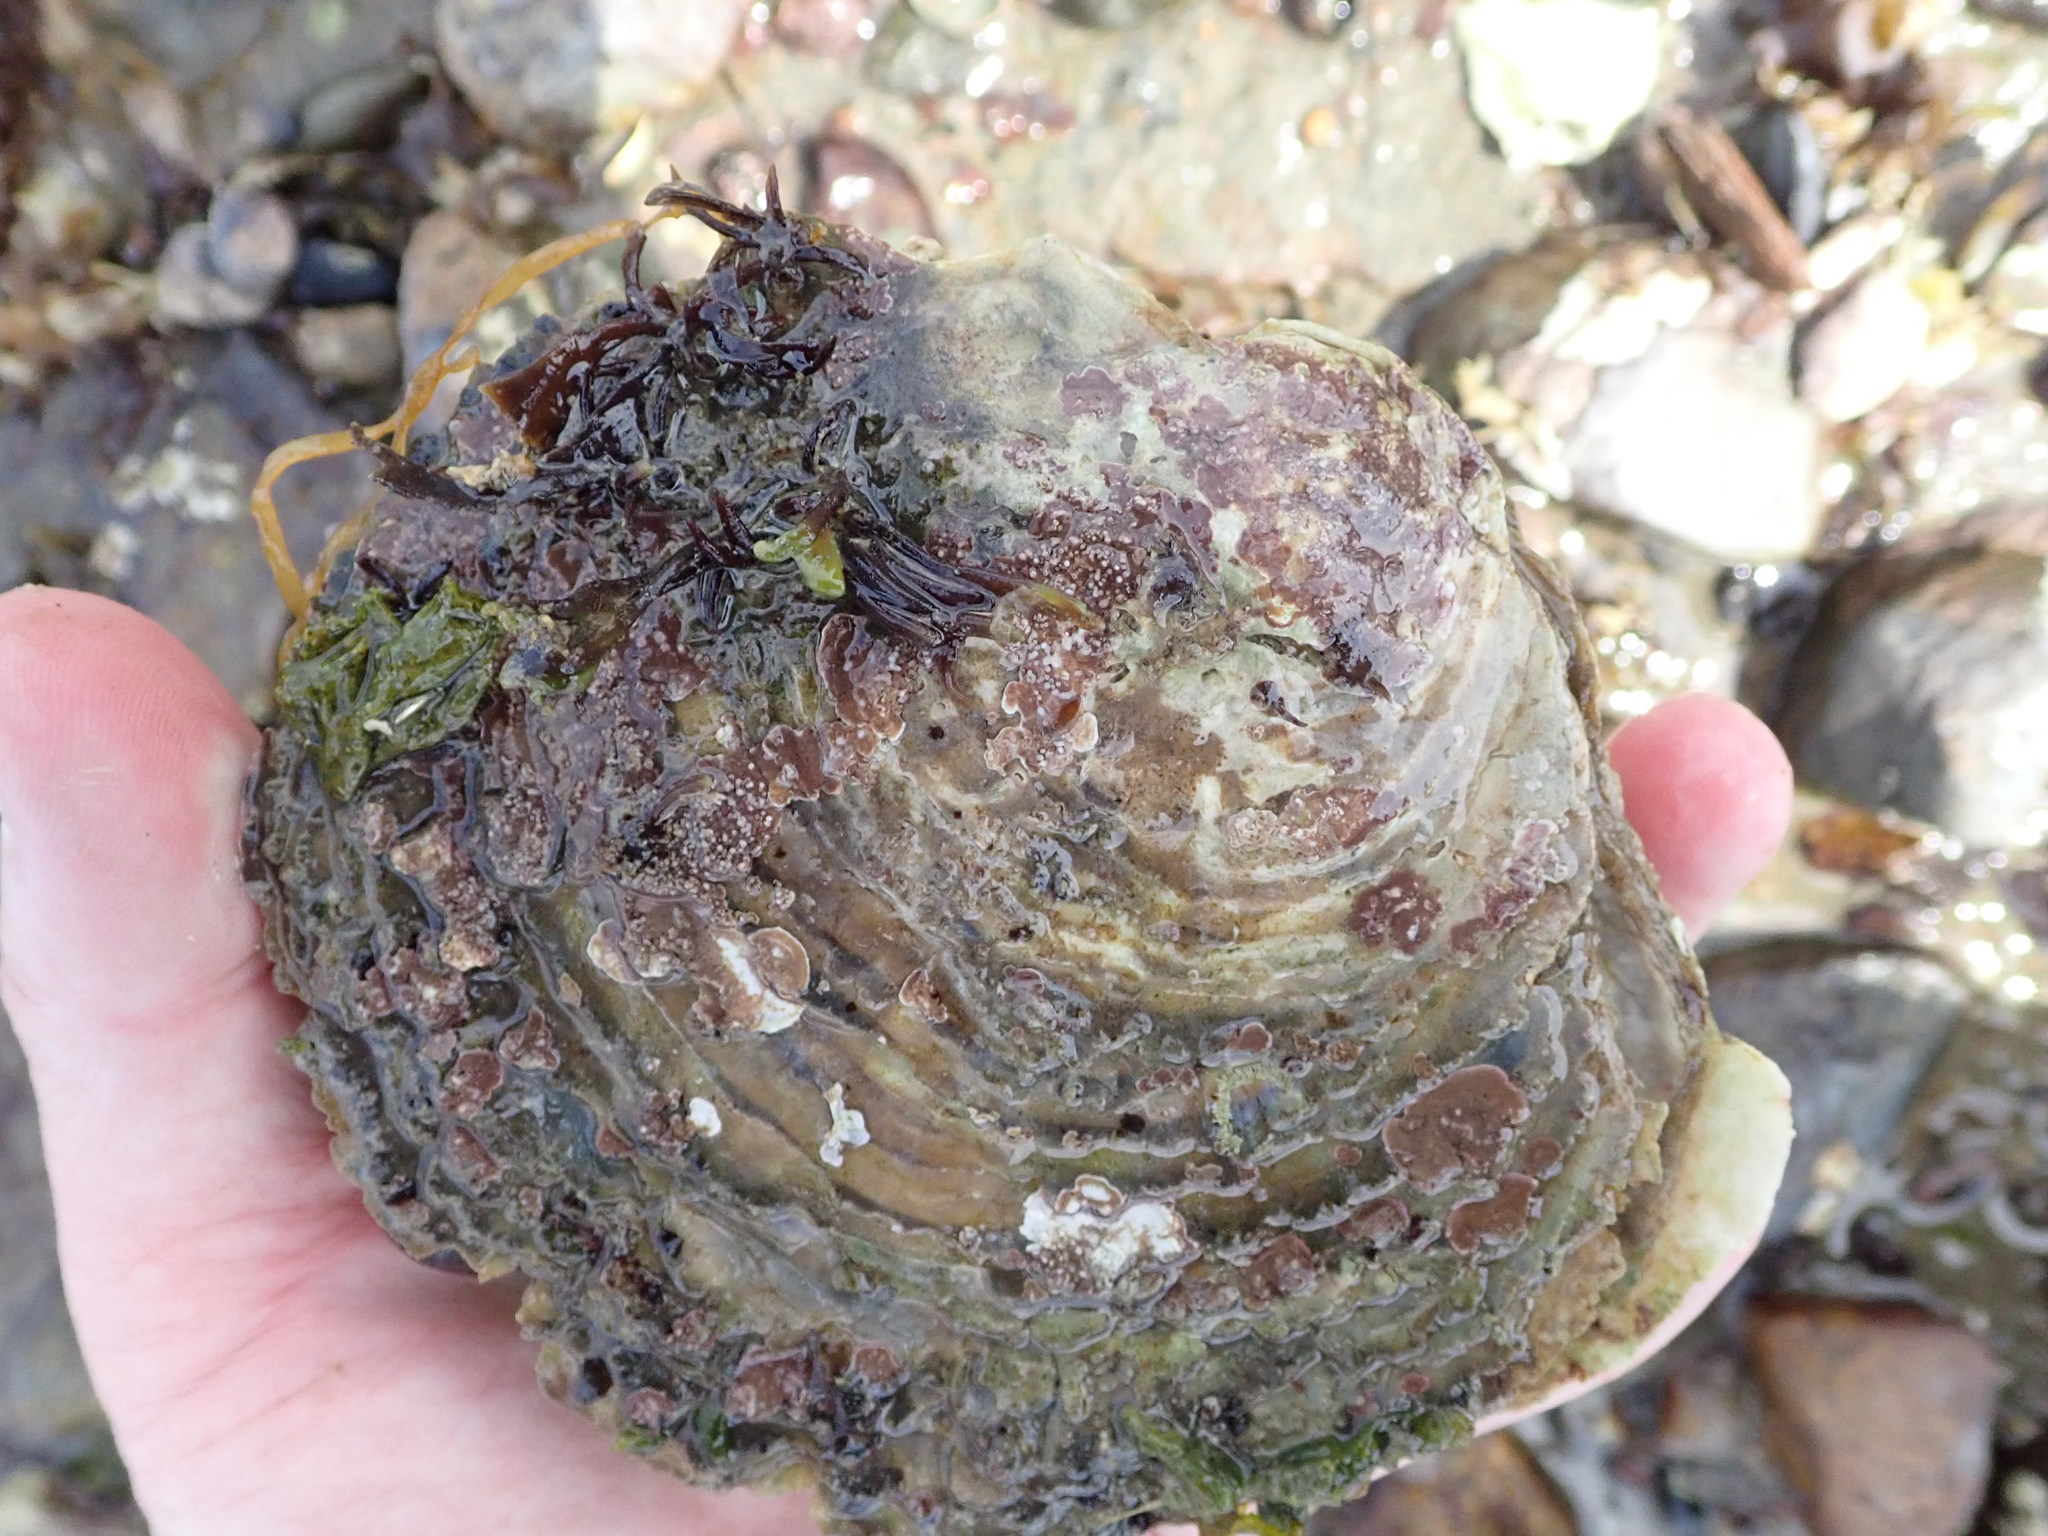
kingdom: Animalia
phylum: Mollusca
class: Bivalvia
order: Ostreida
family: Ostreidae
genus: Ostrea
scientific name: Ostrea edulis
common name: Flat oyster
